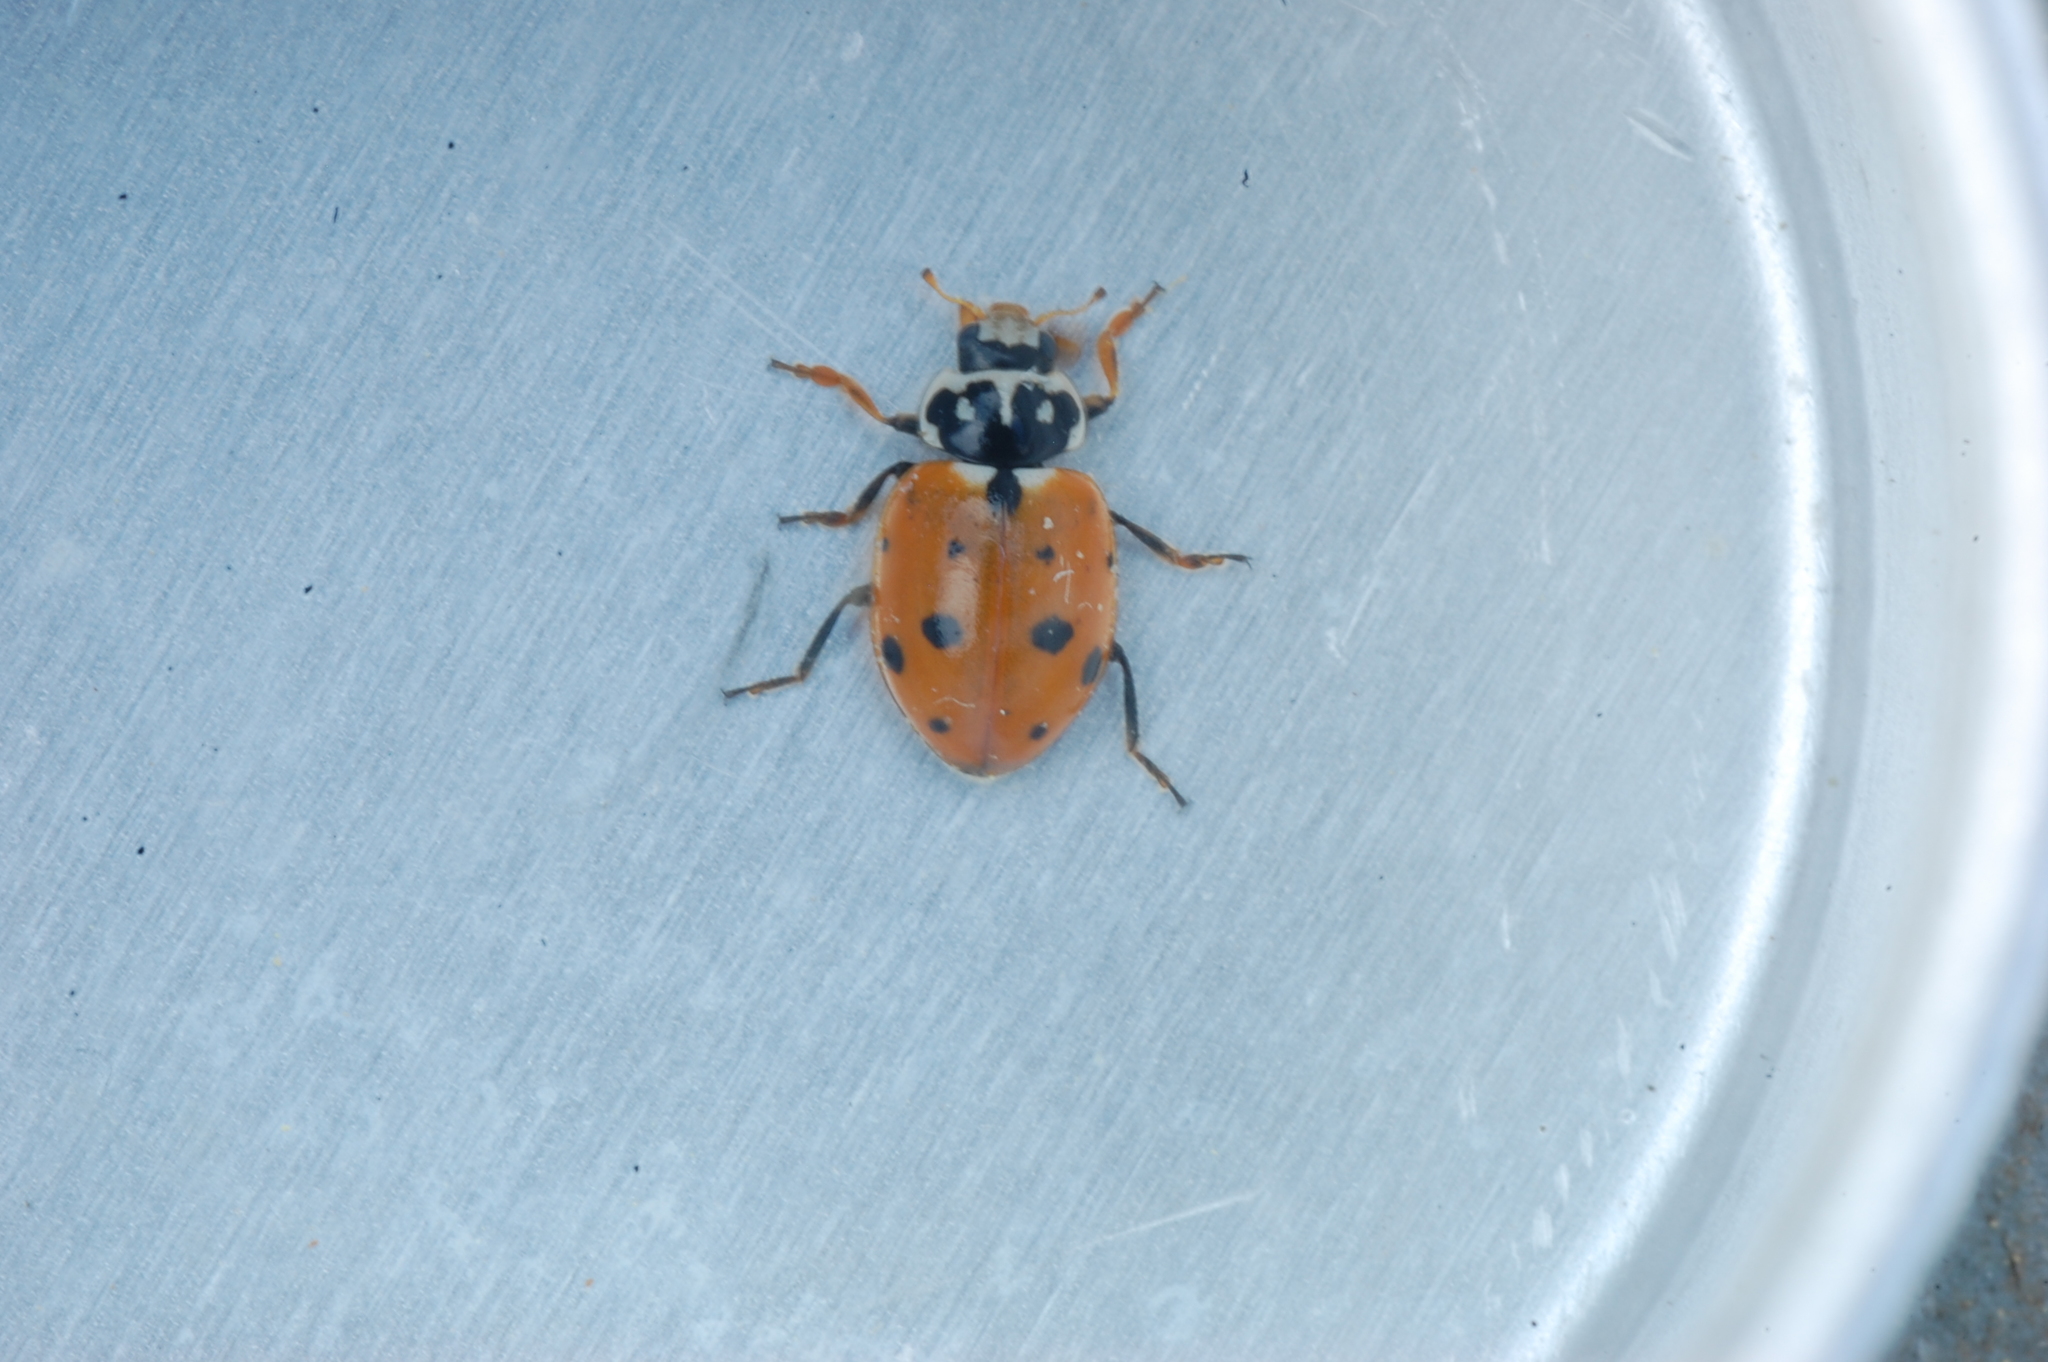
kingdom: Animalia
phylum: Arthropoda
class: Insecta
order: Coleoptera
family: Coccinellidae
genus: Hippodamia
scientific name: Hippodamia variegata
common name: Ladybird beetle
